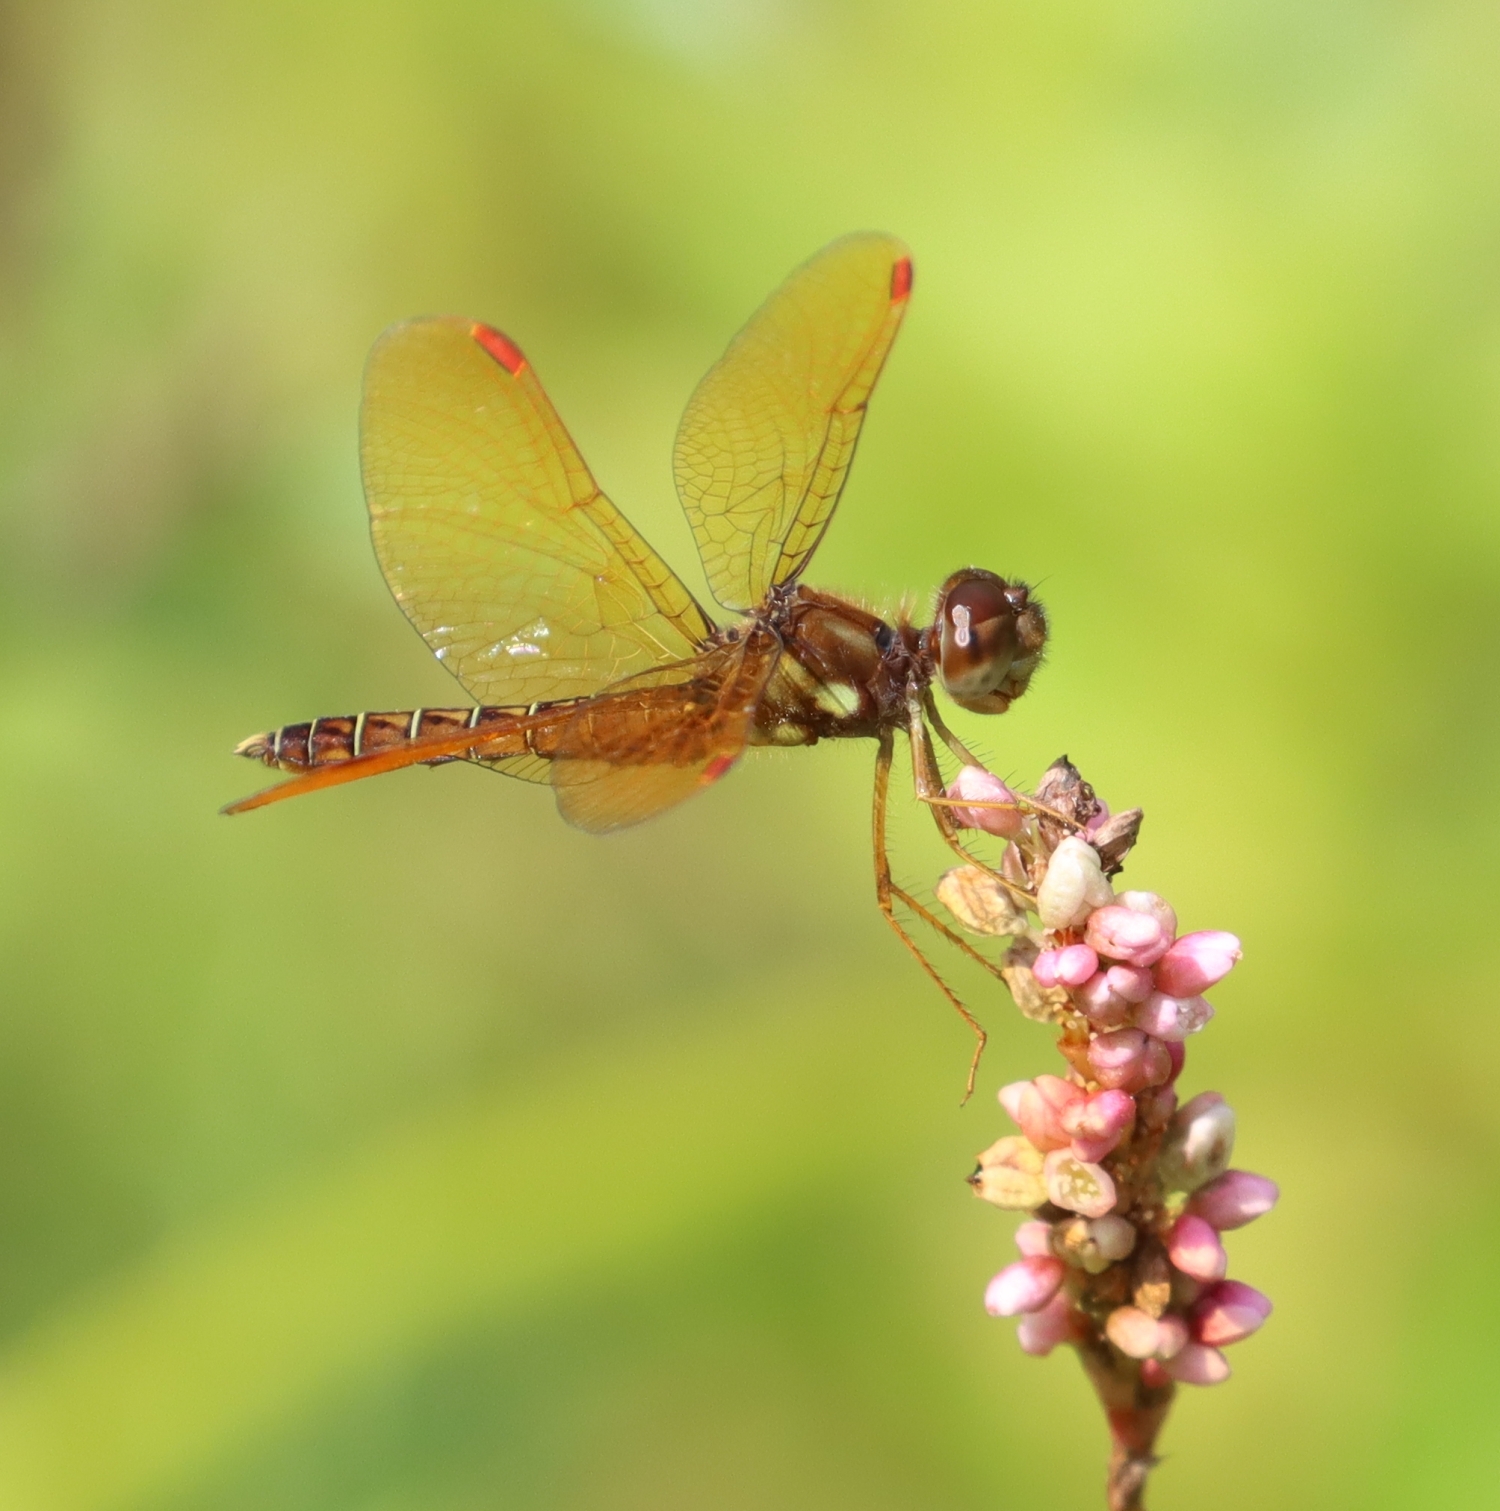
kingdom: Animalia
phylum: Arthropoda
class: Insecta
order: Odonata
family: Libellulidae
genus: Perithemis
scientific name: Perithemis tenera
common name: Eastern amberwing
